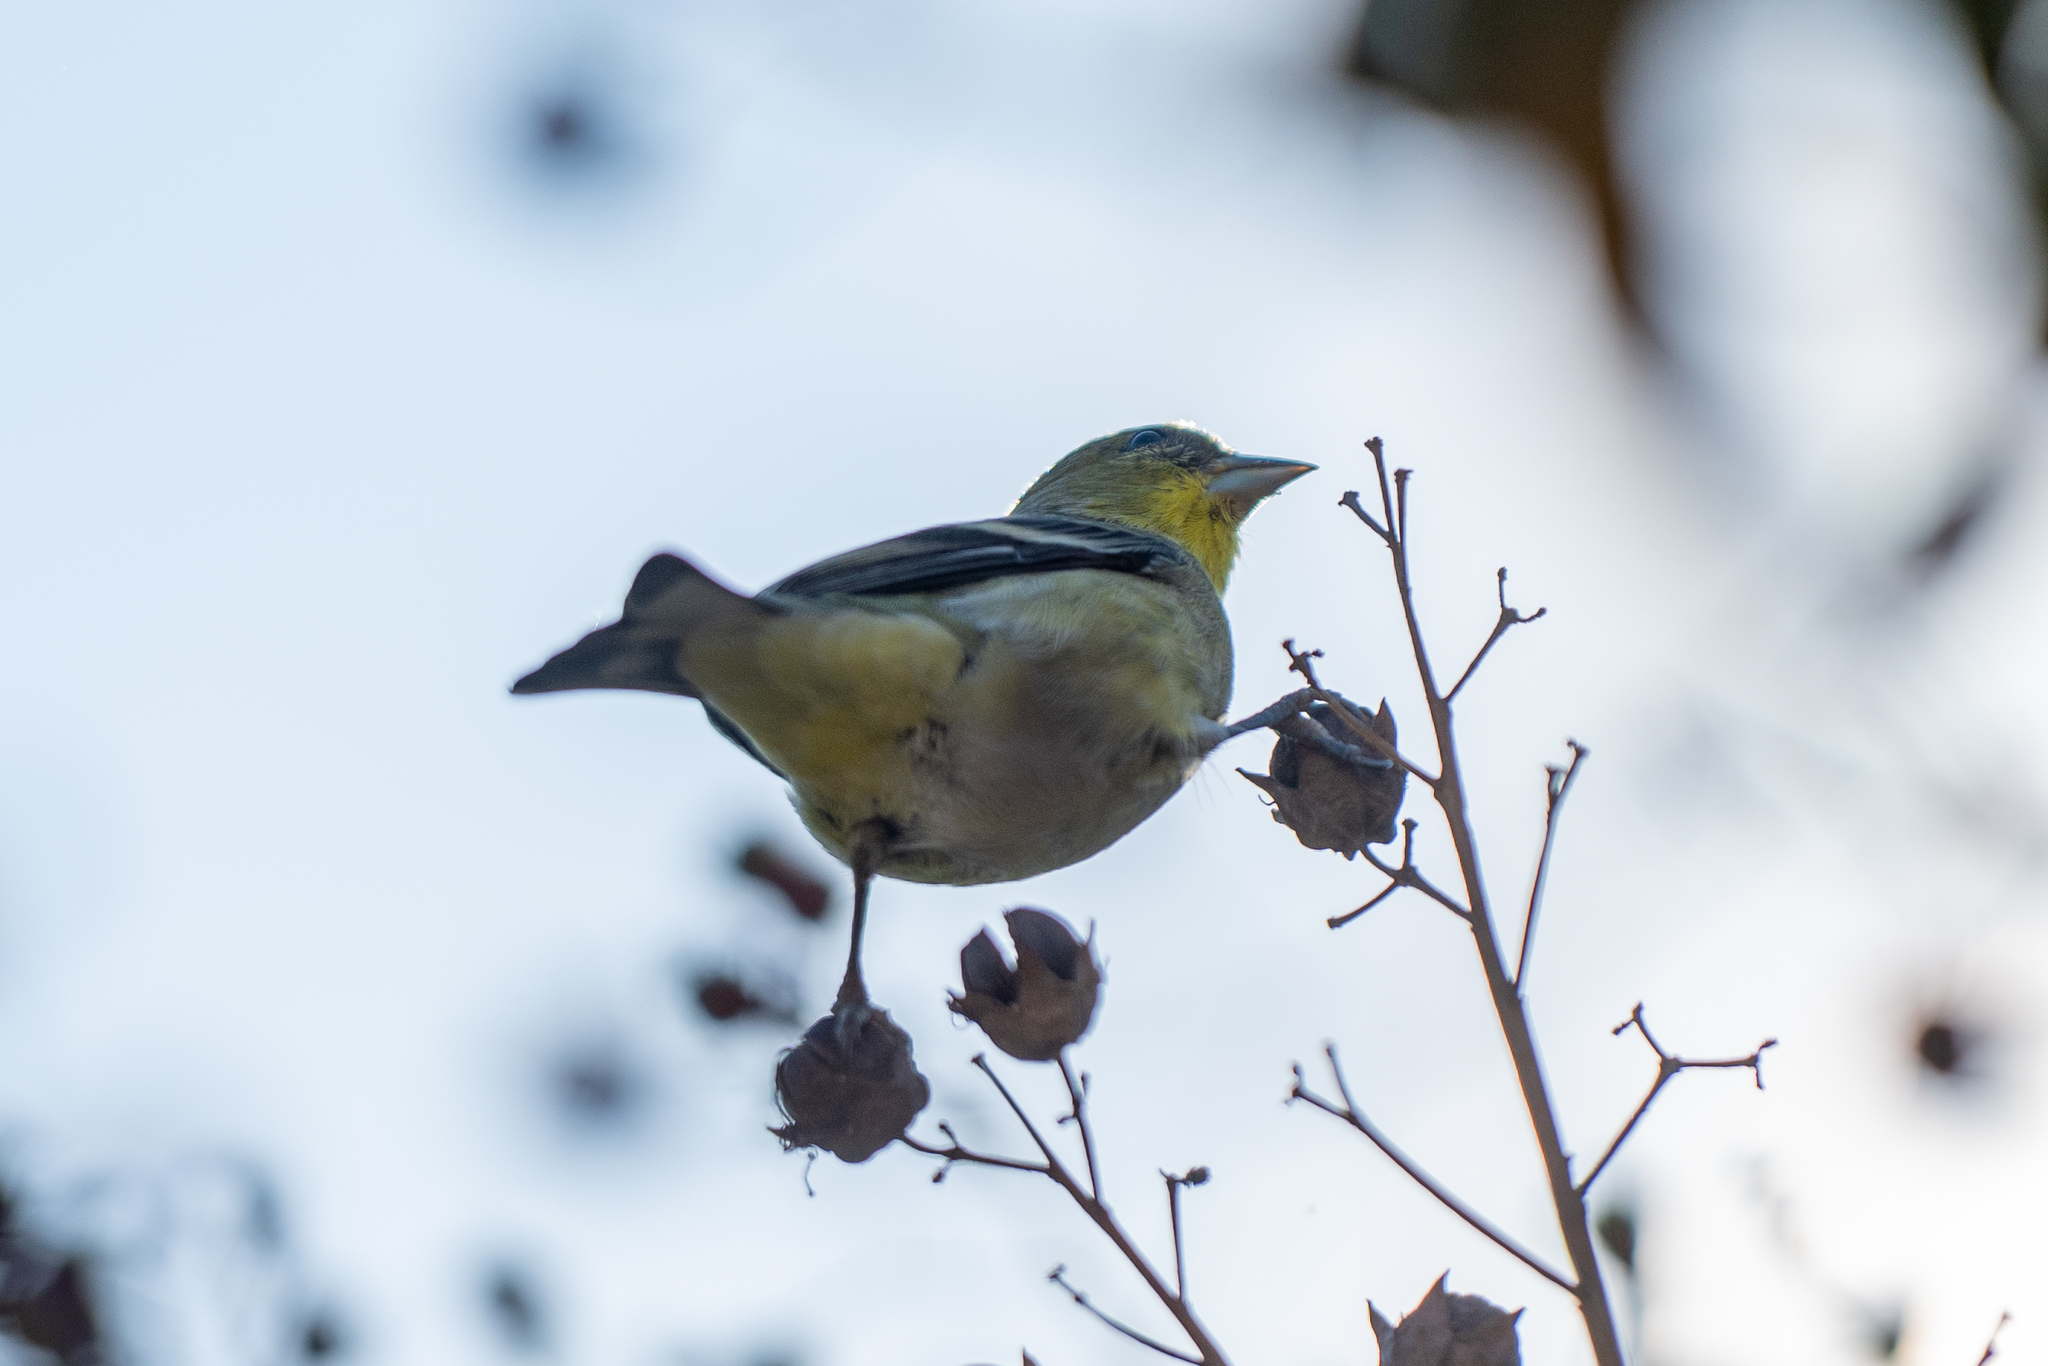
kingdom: Animalia
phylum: Chordata
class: Aves
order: Passeriformes
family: Fringillidae
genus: Spinus
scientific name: Spinus psaltria
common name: Lesser goldfinch
